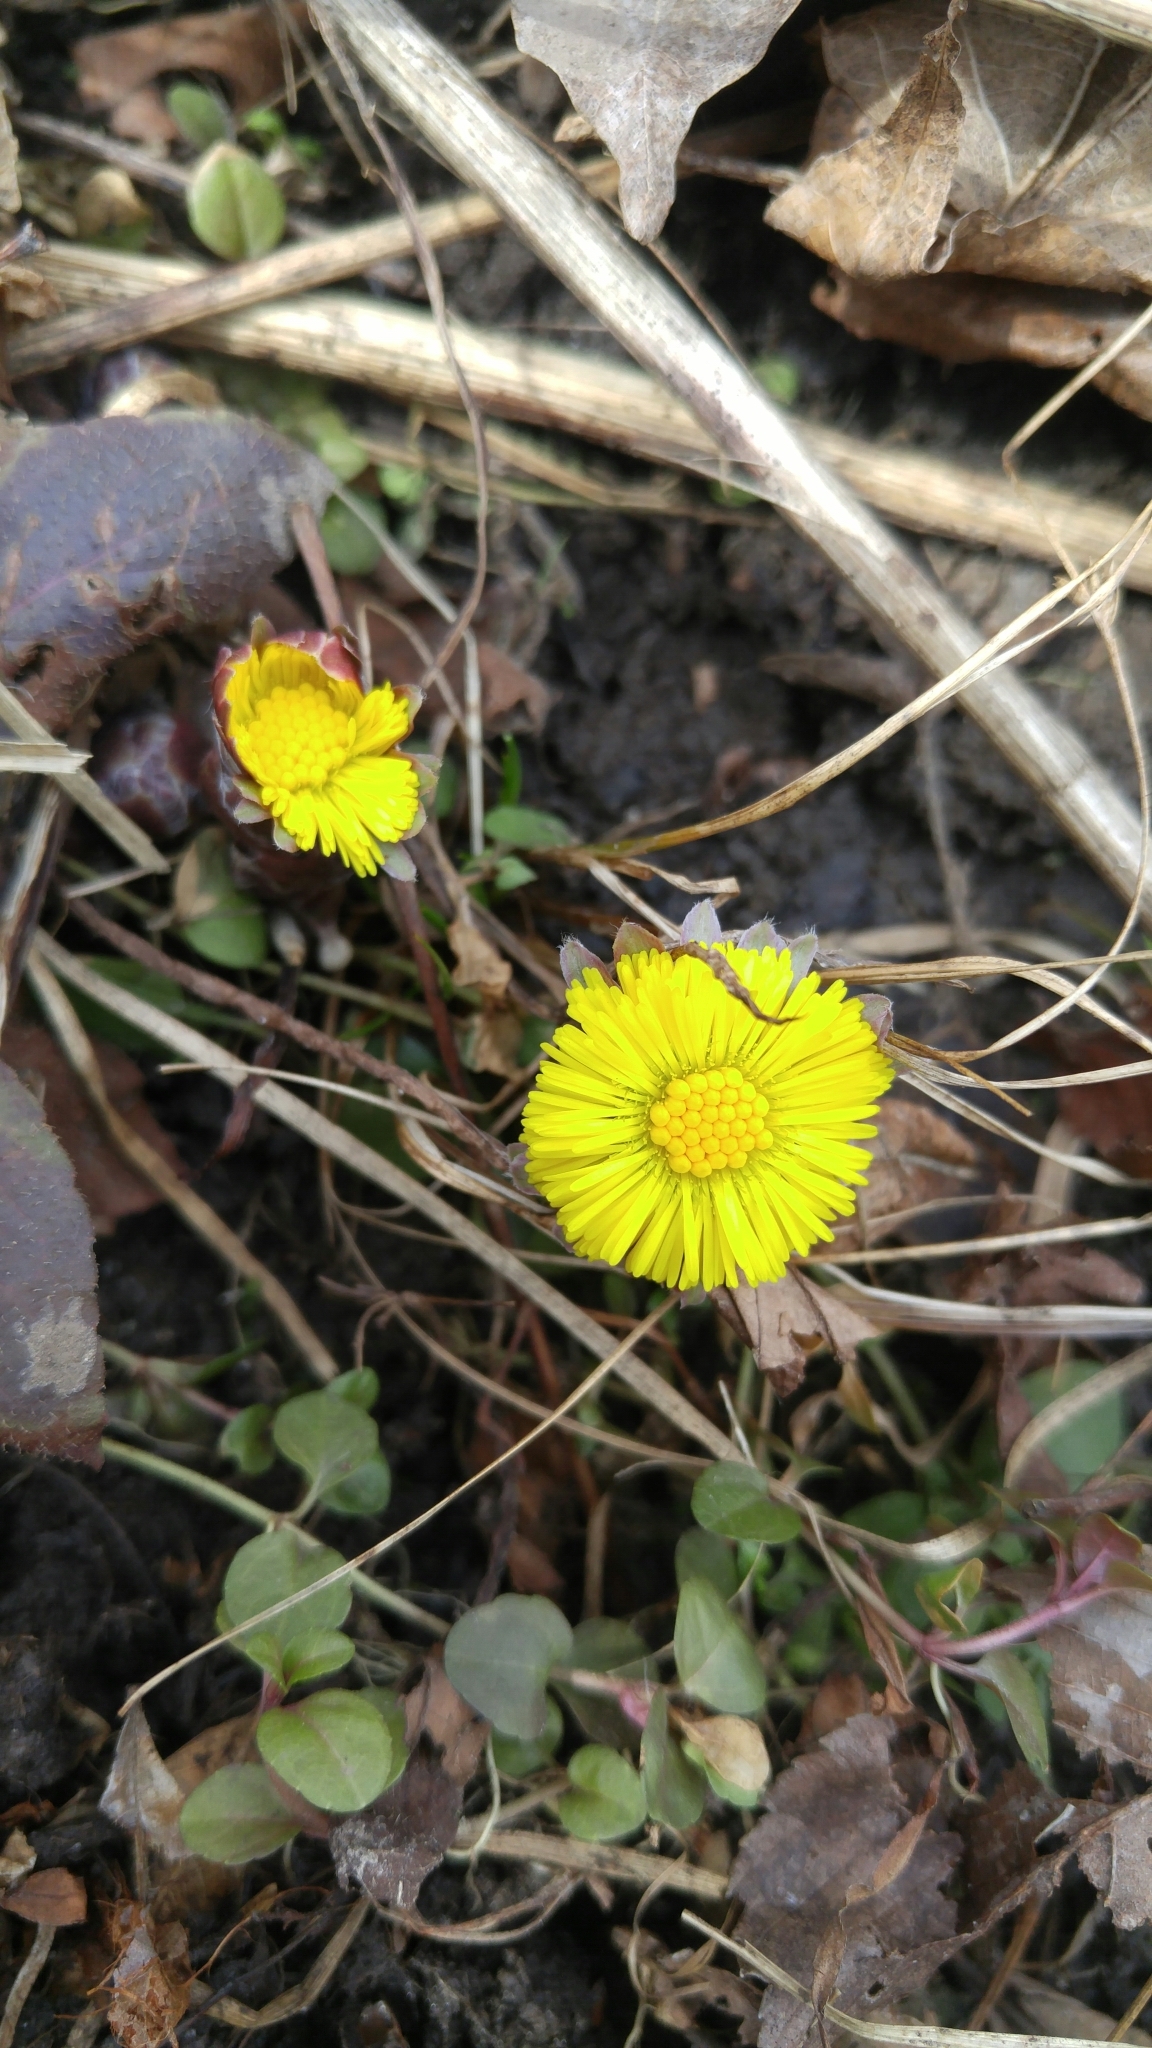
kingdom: Plantae
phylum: Tracheophyta
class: Magnoliopsida
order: Asterales
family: Asteraceae
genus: Tussilago
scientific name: Tussilago farfara
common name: Coltsfoot
